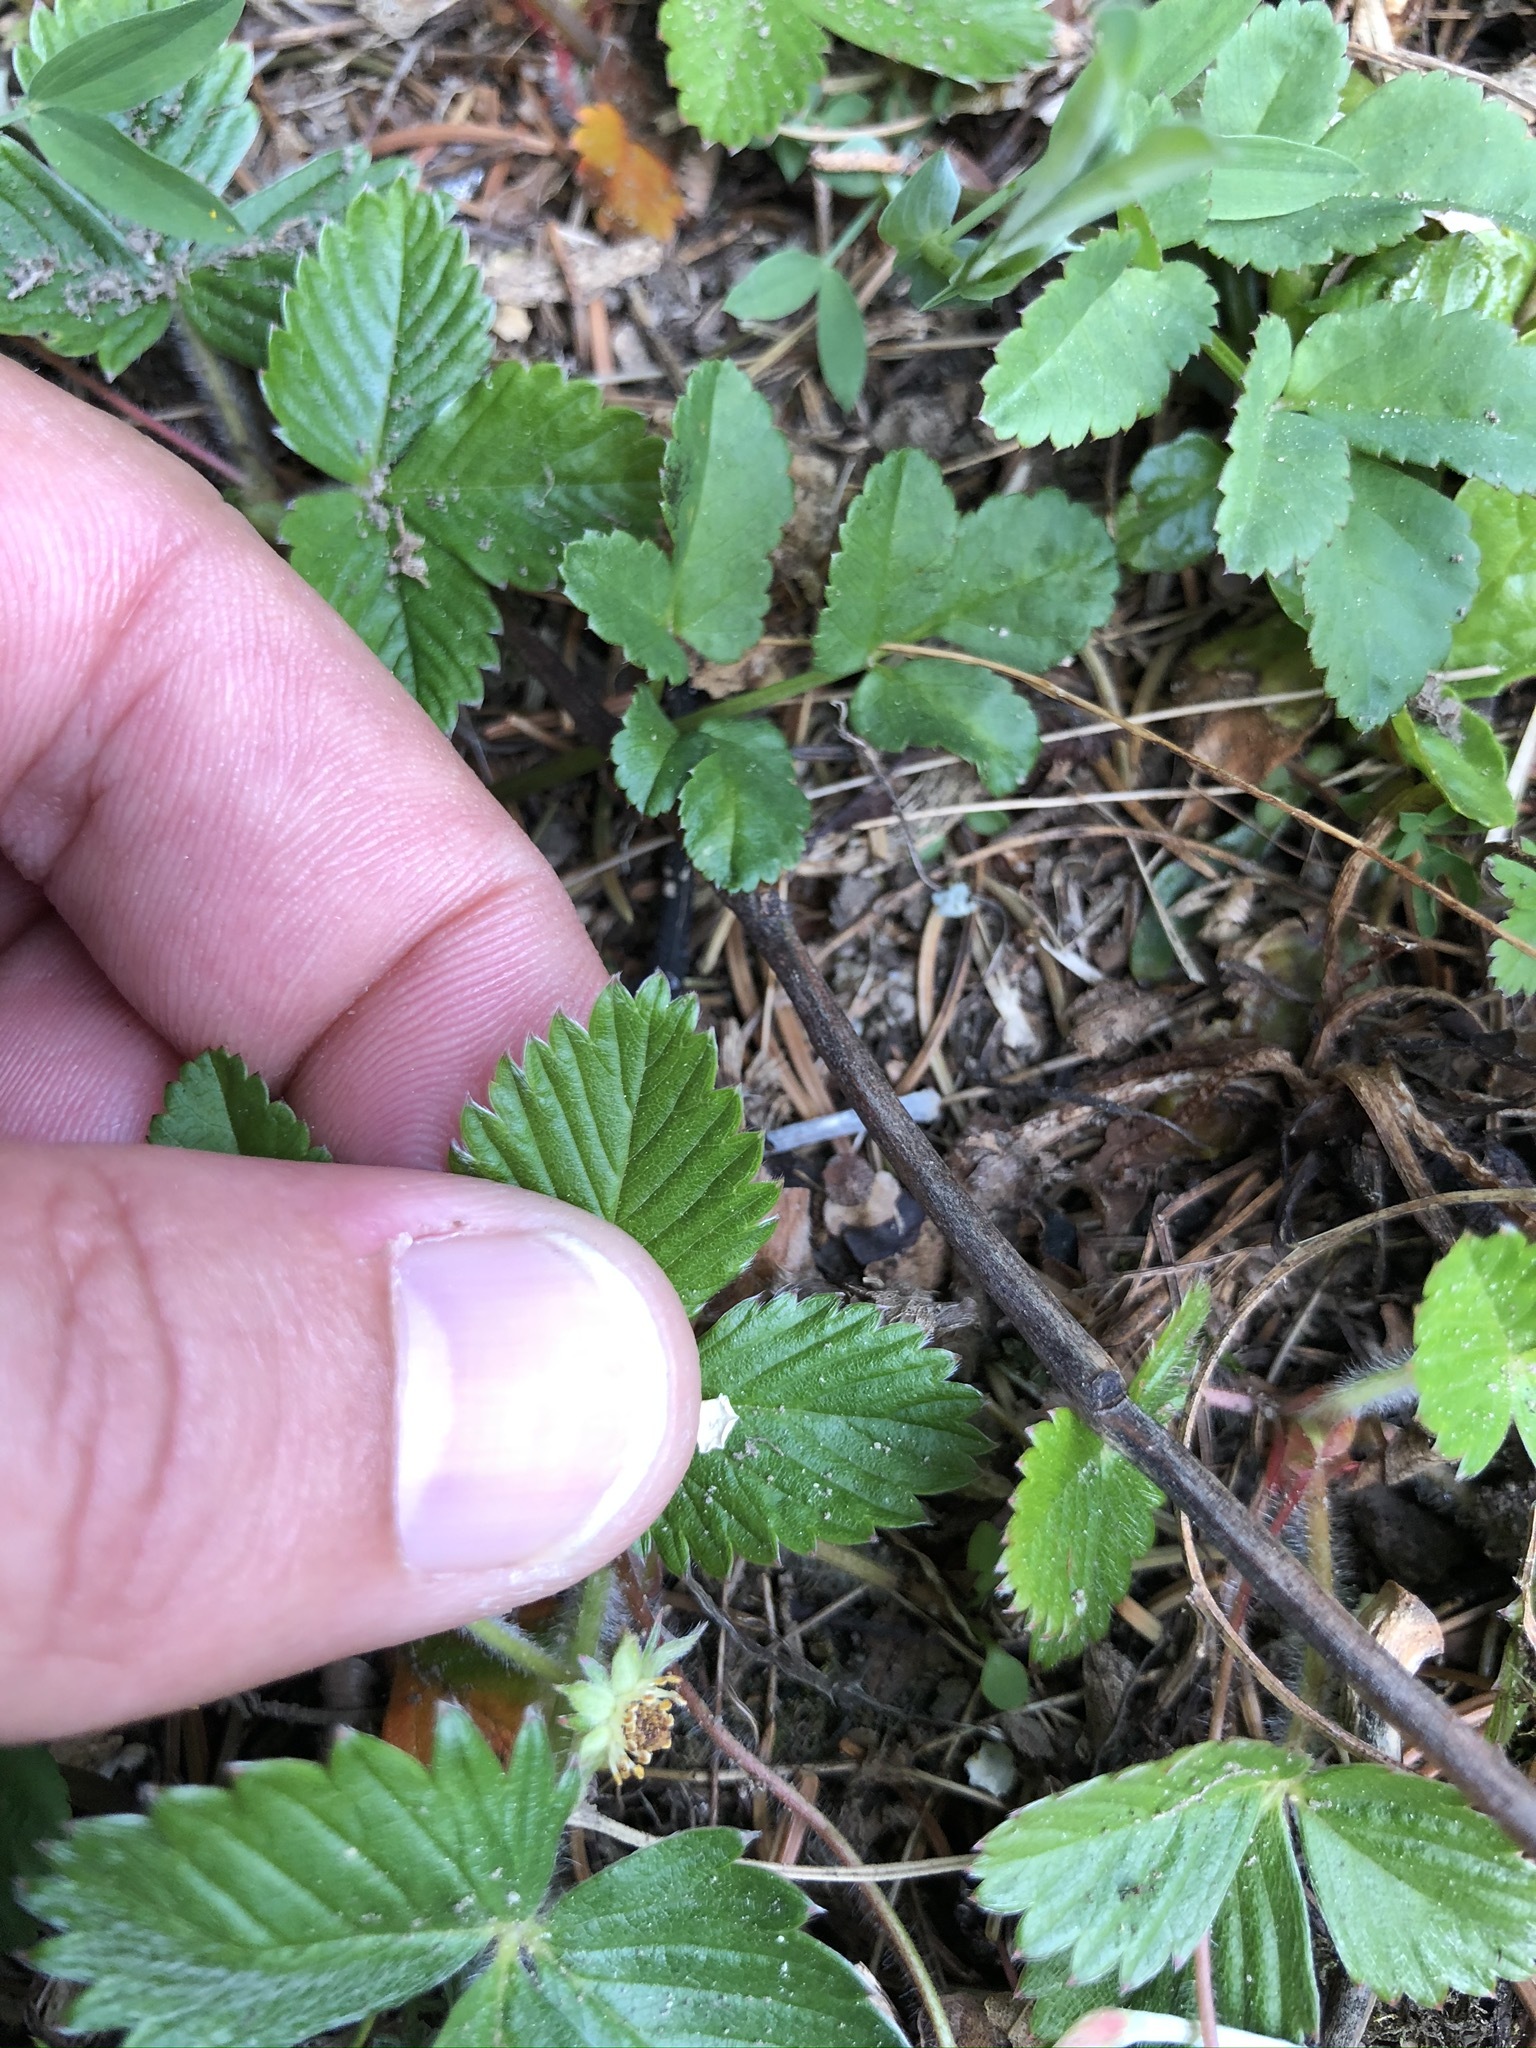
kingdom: Plantae
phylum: Tracheophyta
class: Magnoliopsida
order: Rosales
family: Rosaceae
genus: Fragaria
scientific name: Fragaria vesca
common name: Wild strawberry
